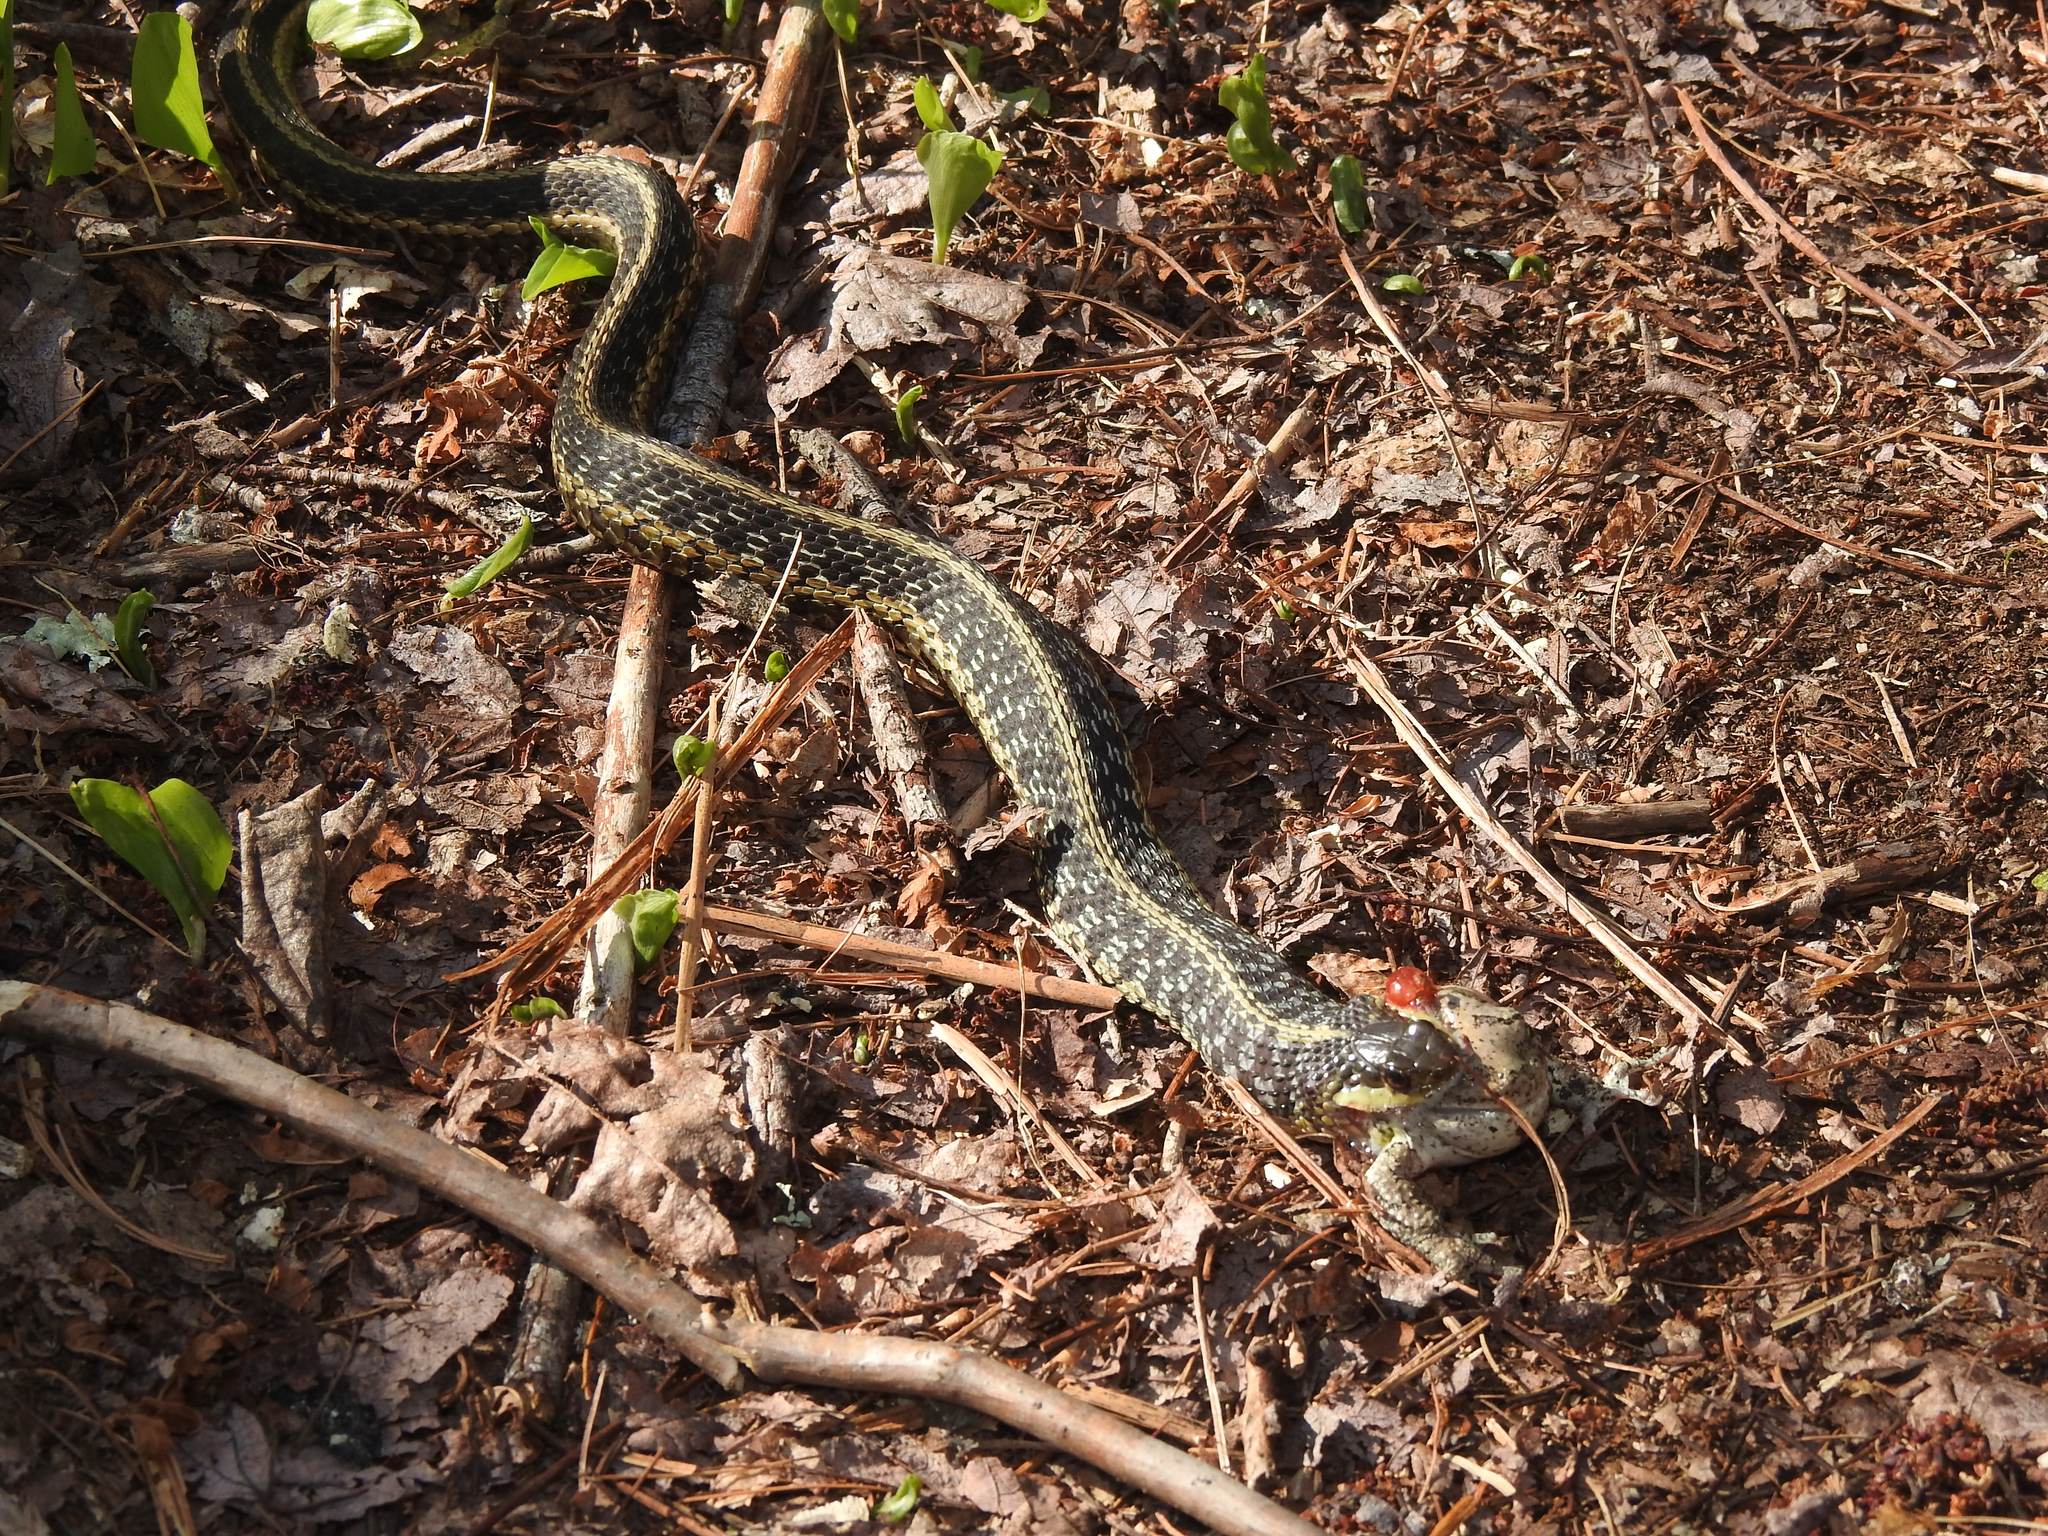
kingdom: Animalia
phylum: Chordata
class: Squamata
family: Colubridae
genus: Thamnophis
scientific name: Thamnophis sirtalis
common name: Common garter snake
